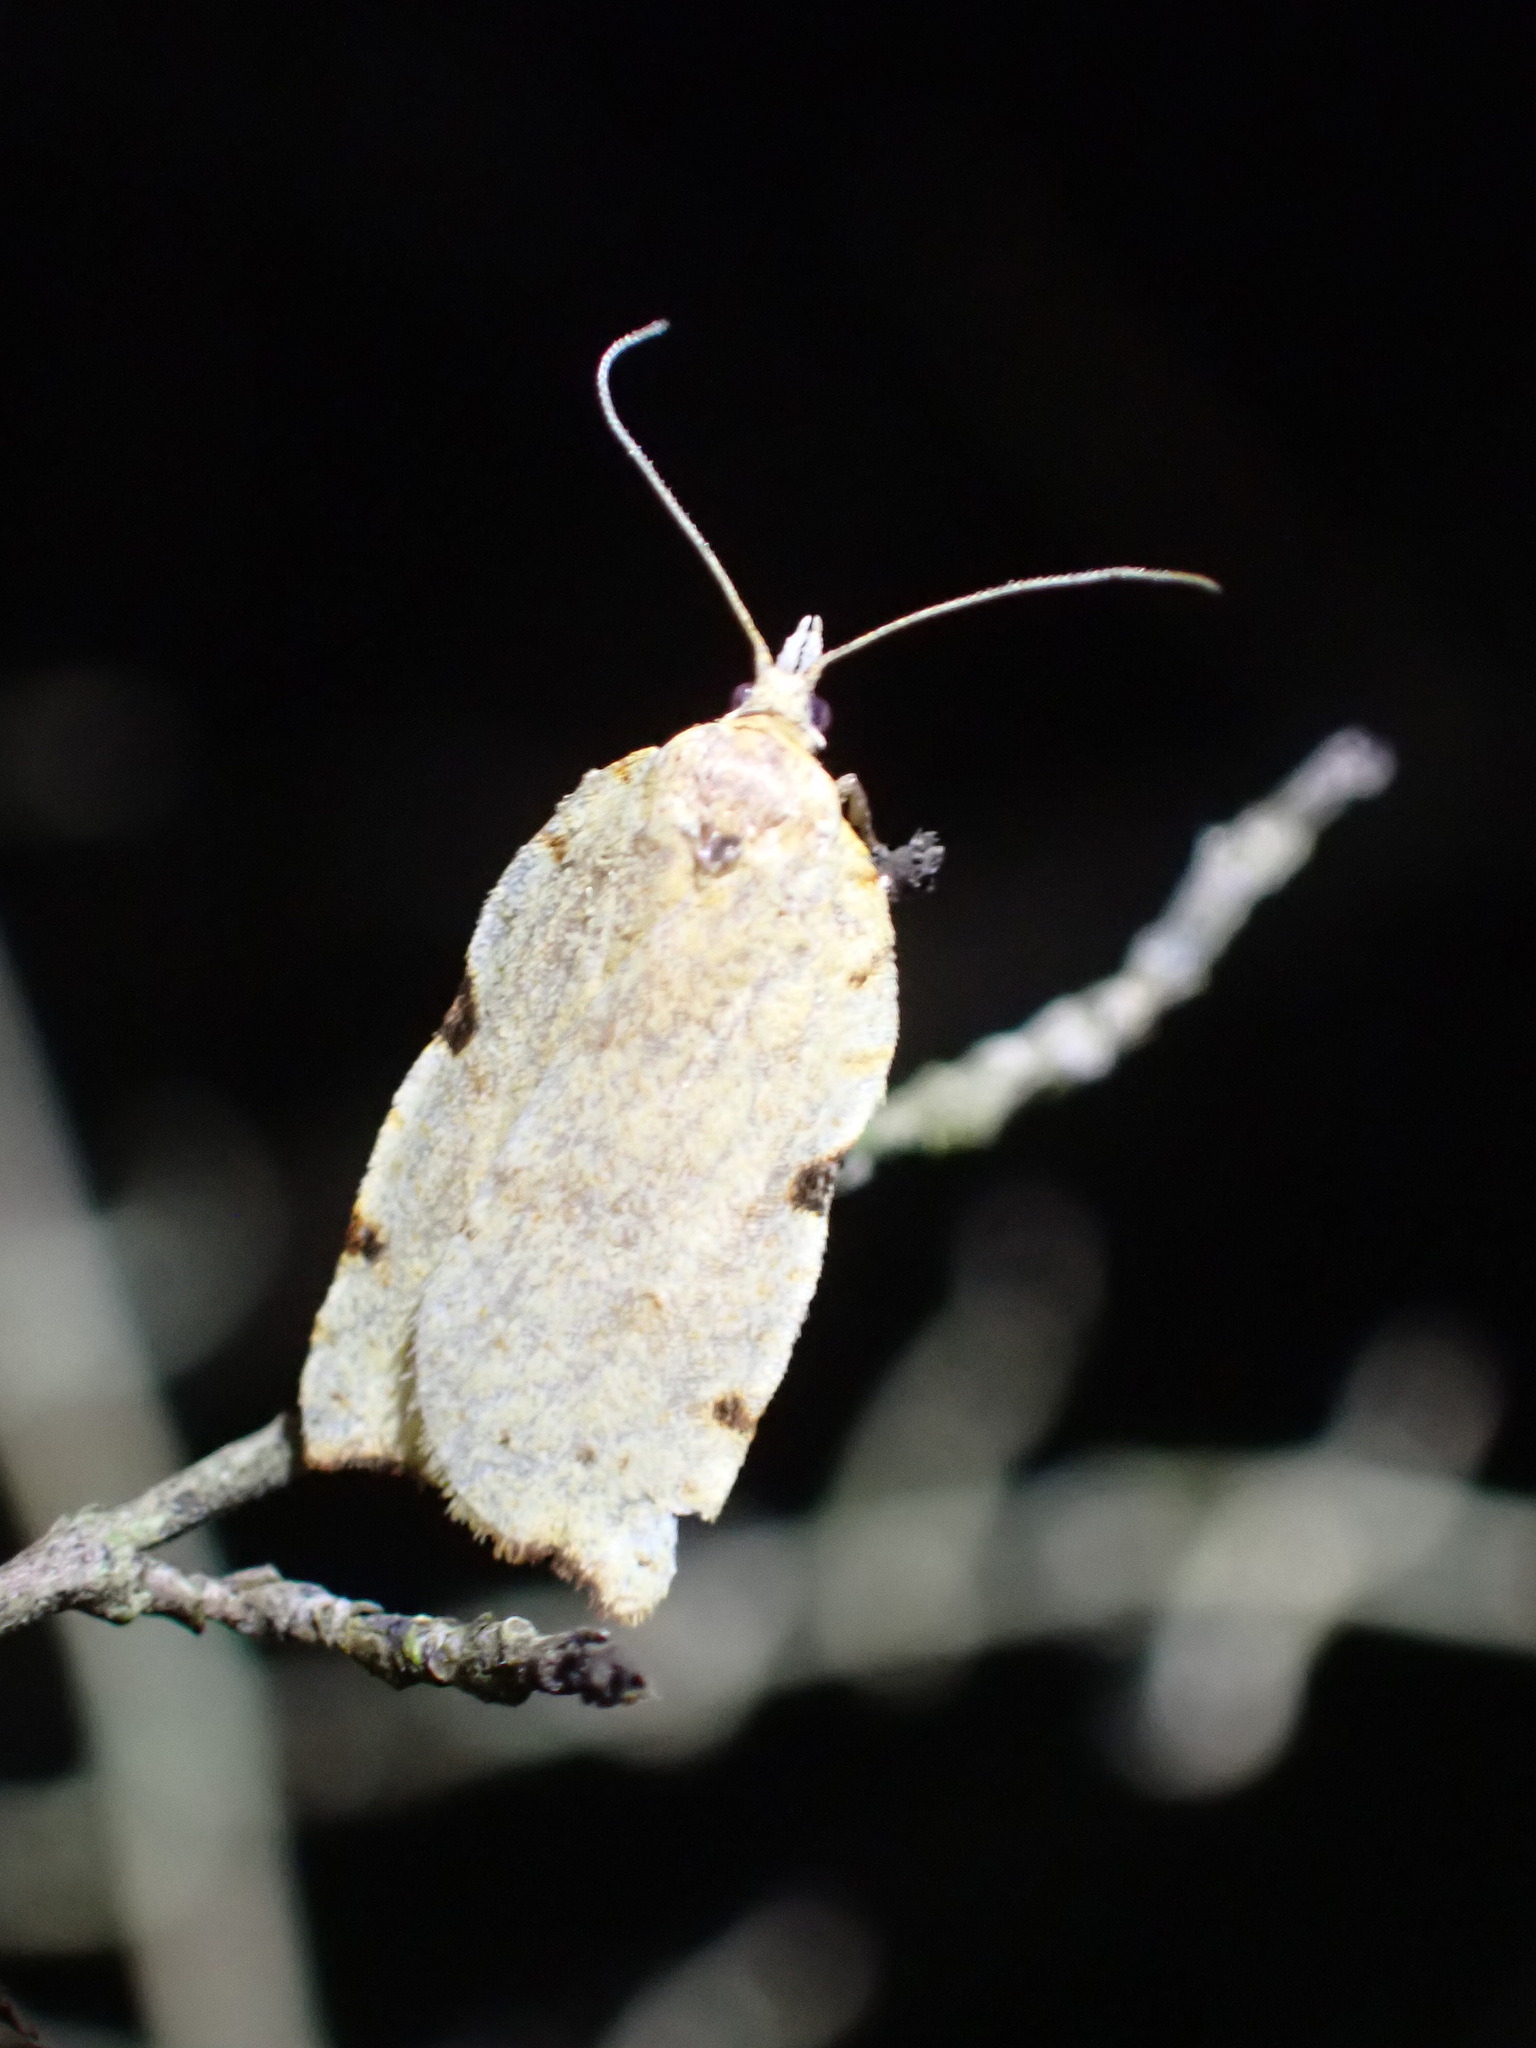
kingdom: Animalia
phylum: Arthropoda
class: Insecta
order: Lepidoptera
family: Tortricidae
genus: Apoctena
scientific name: Apoctena flavescens
